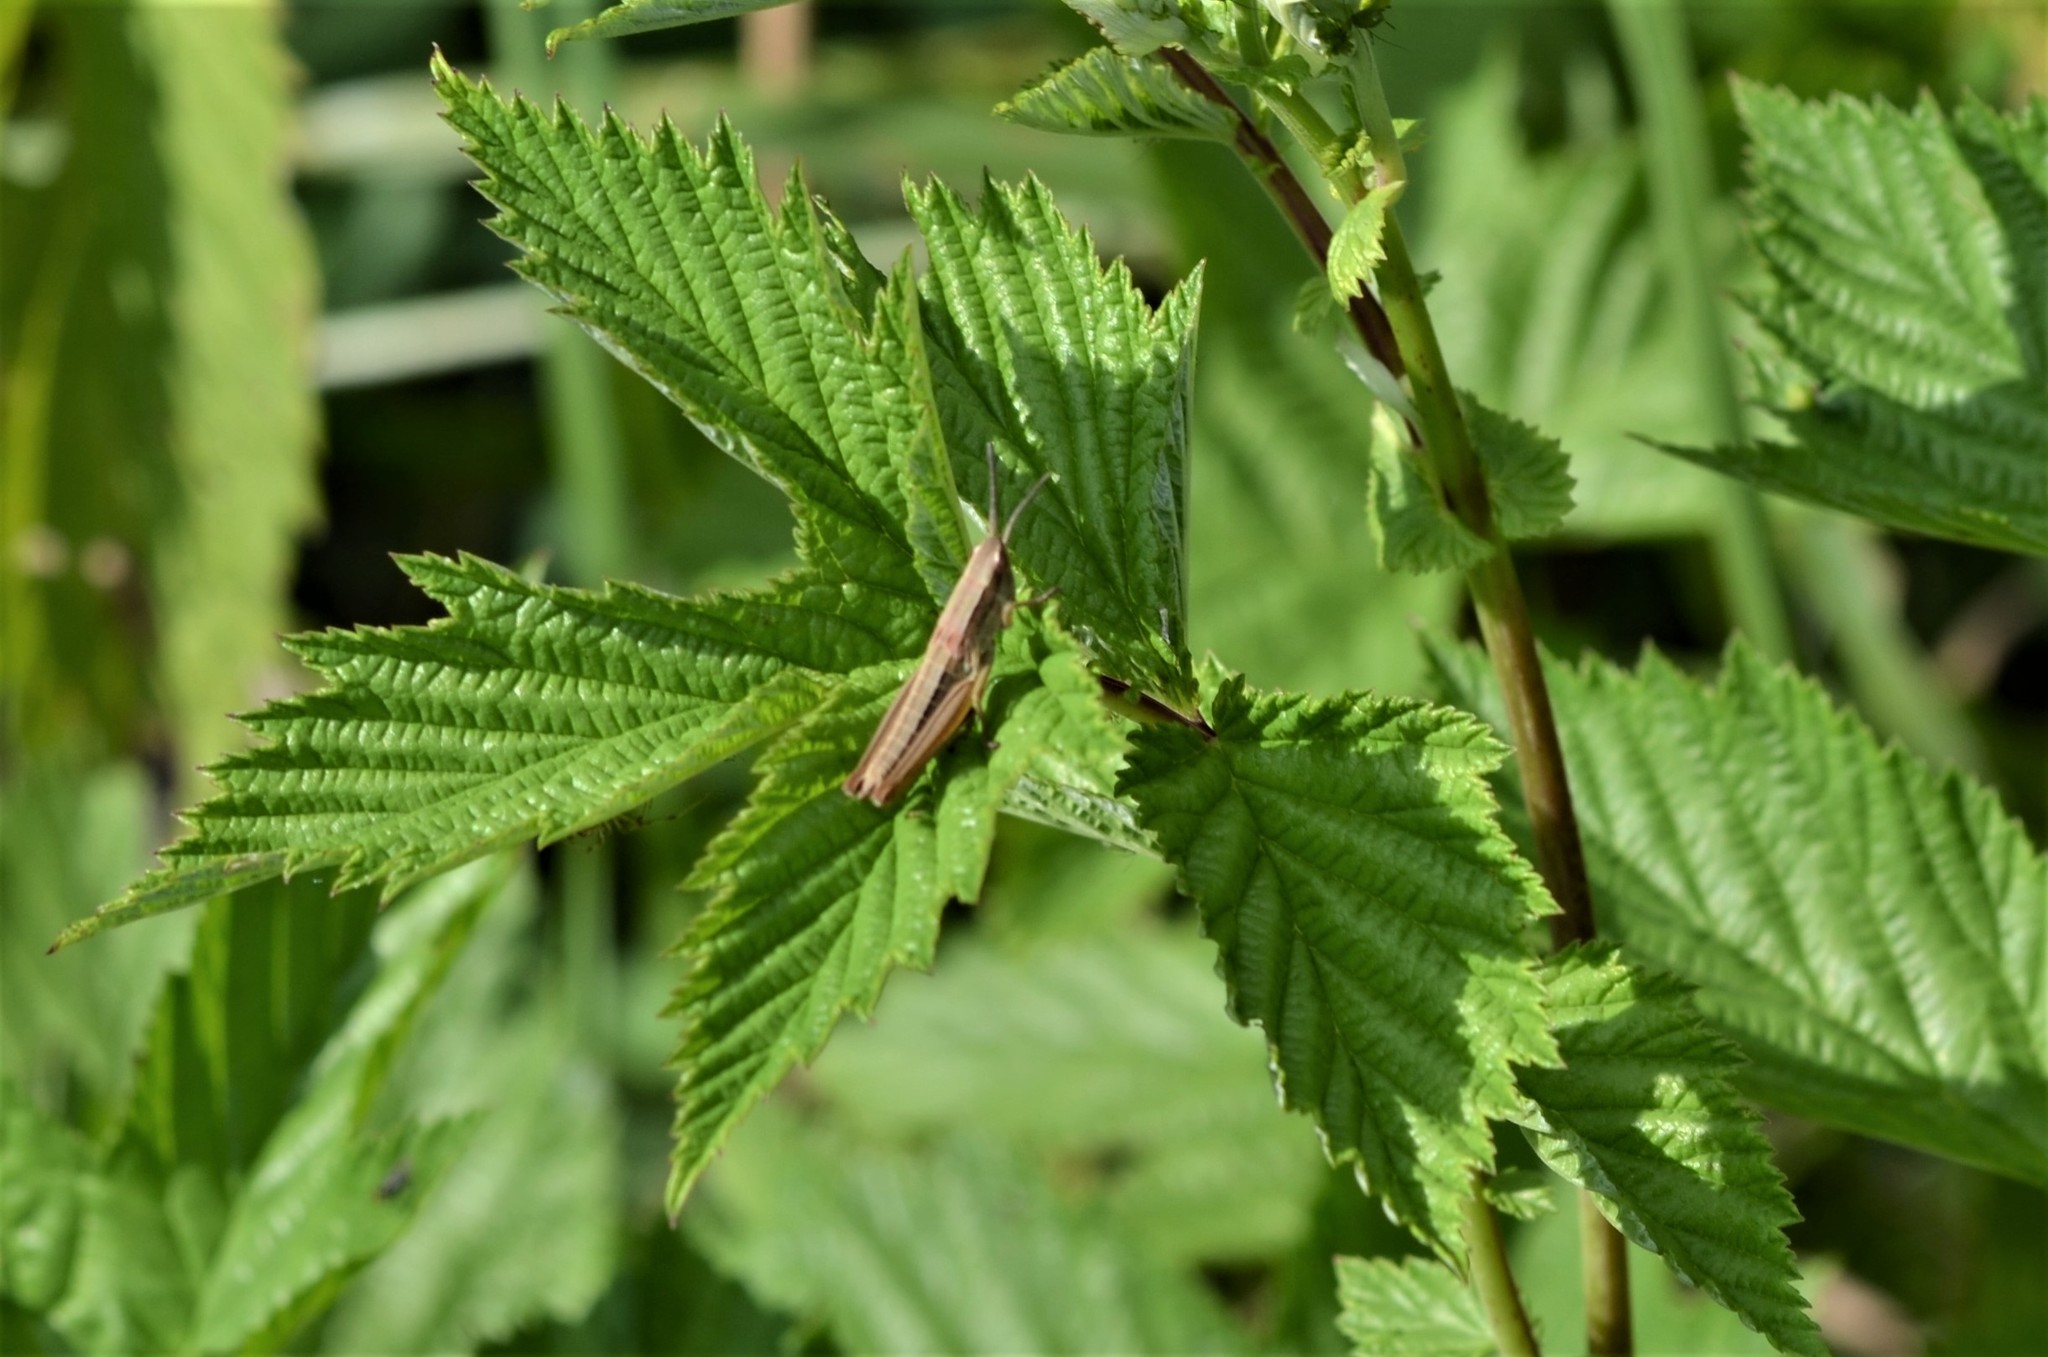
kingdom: Animalia
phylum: Arthropoda
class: Insecta
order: Orthoptera
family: Acrididae
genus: Euthystira
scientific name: Euthystira brachyptera
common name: Small gold grasshopper
